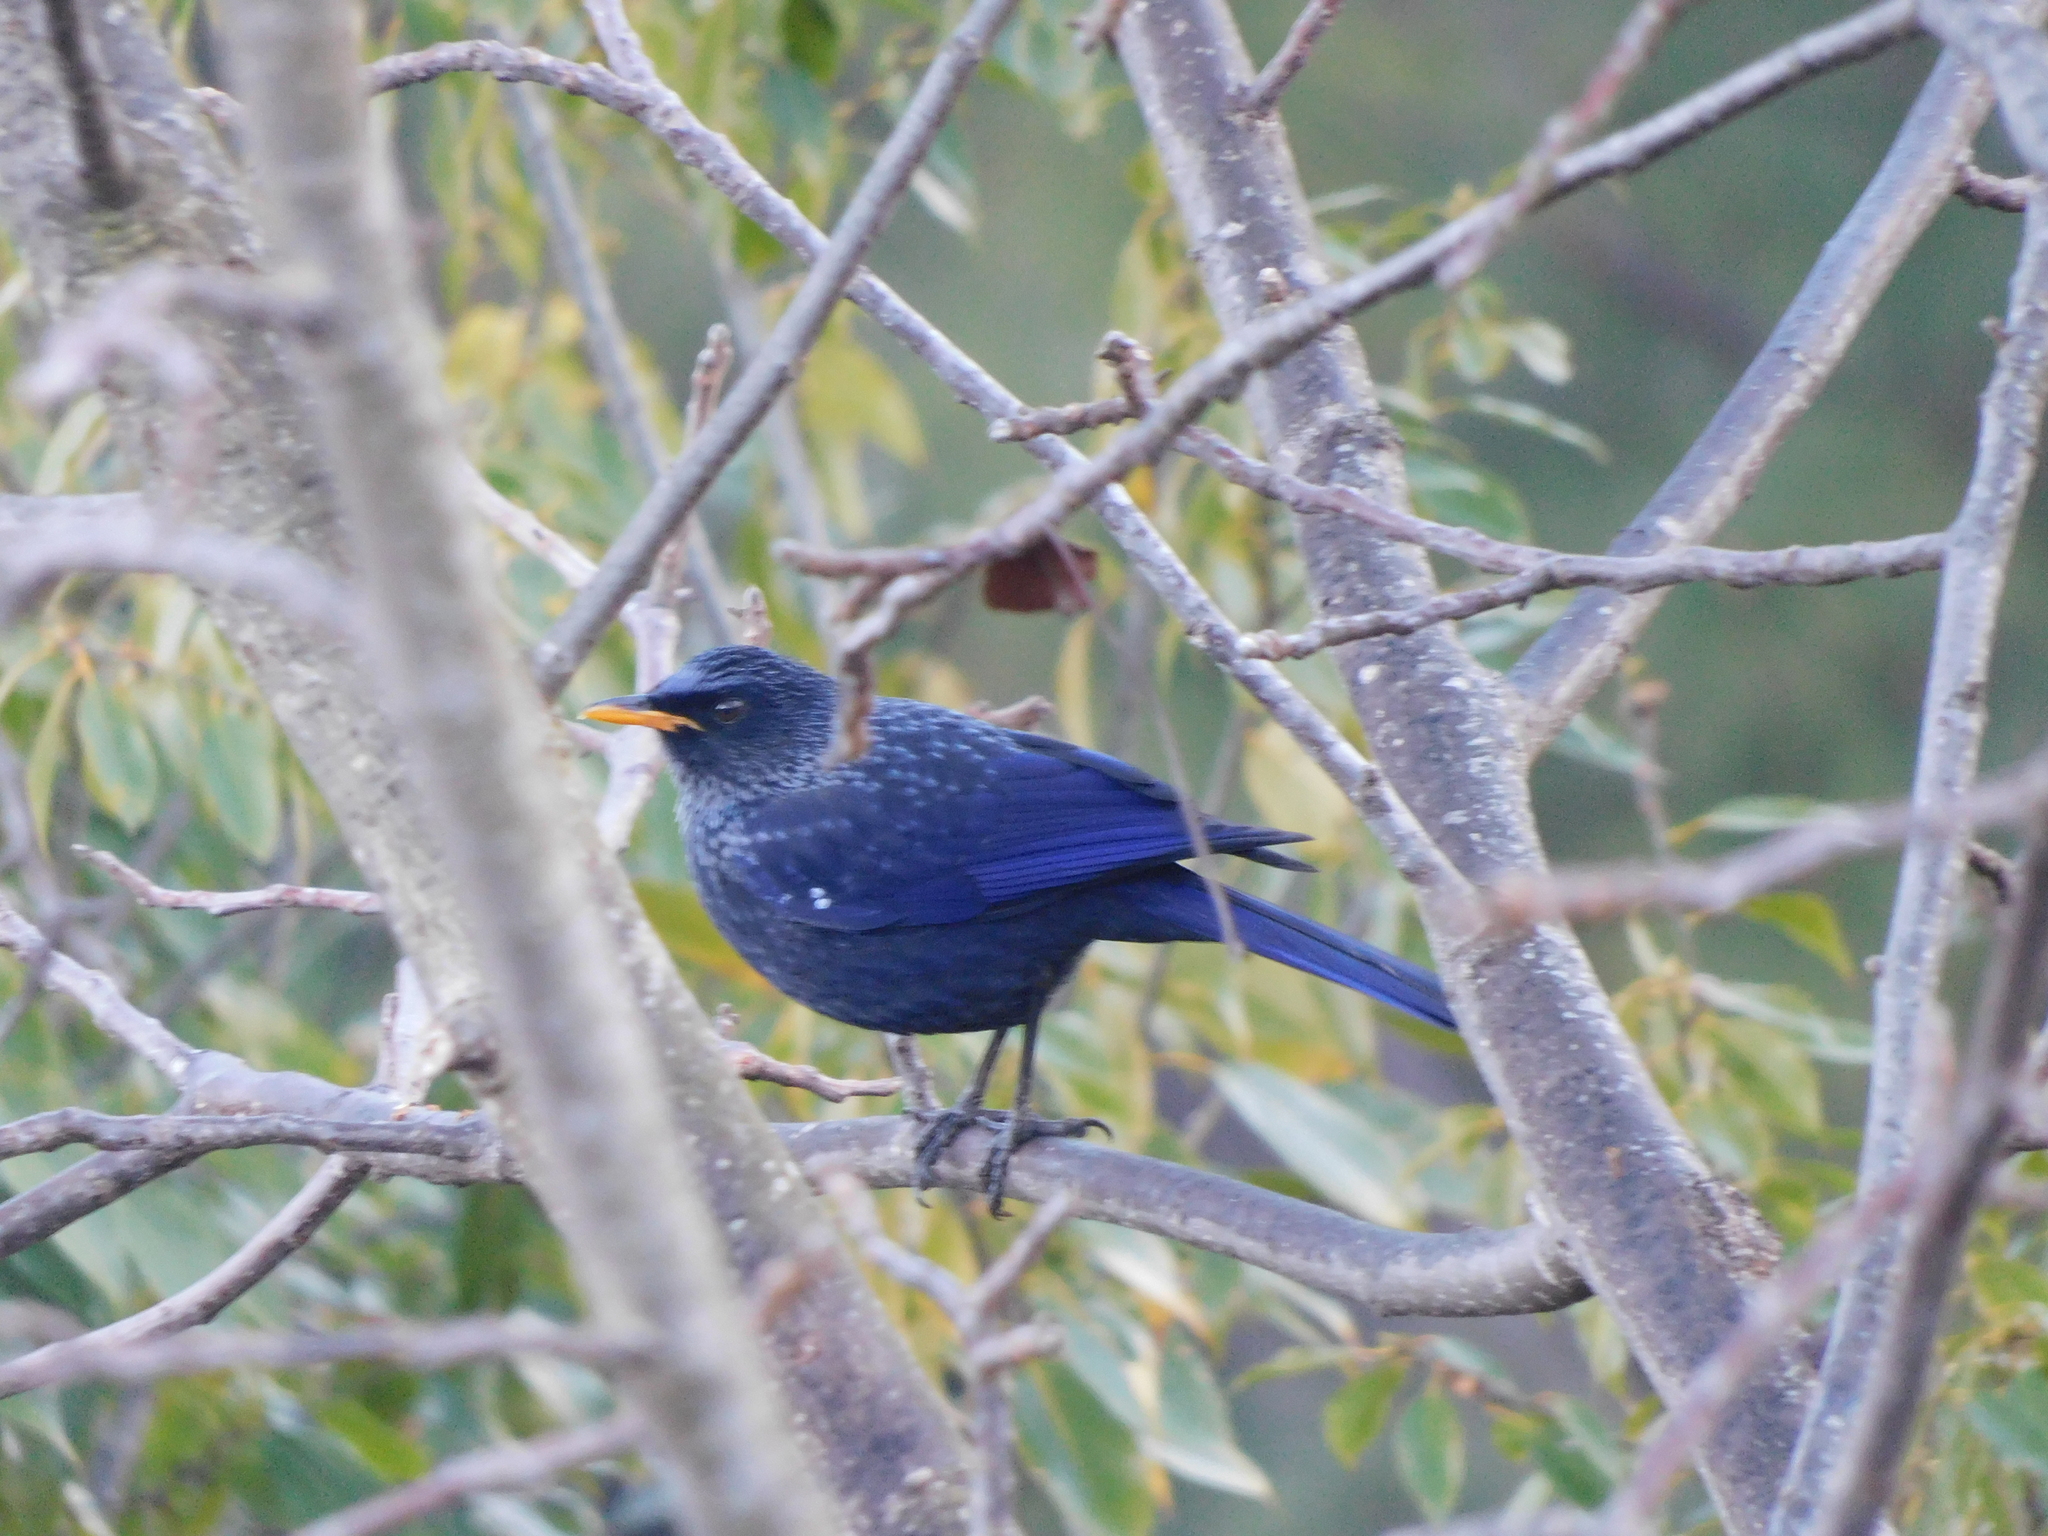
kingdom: Animalia
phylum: Chordata
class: Aves
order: Passeriformes
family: Muscicapidae
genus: Myophonus
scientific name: Myophonus caeruleus
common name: Blue whistling-thrush
